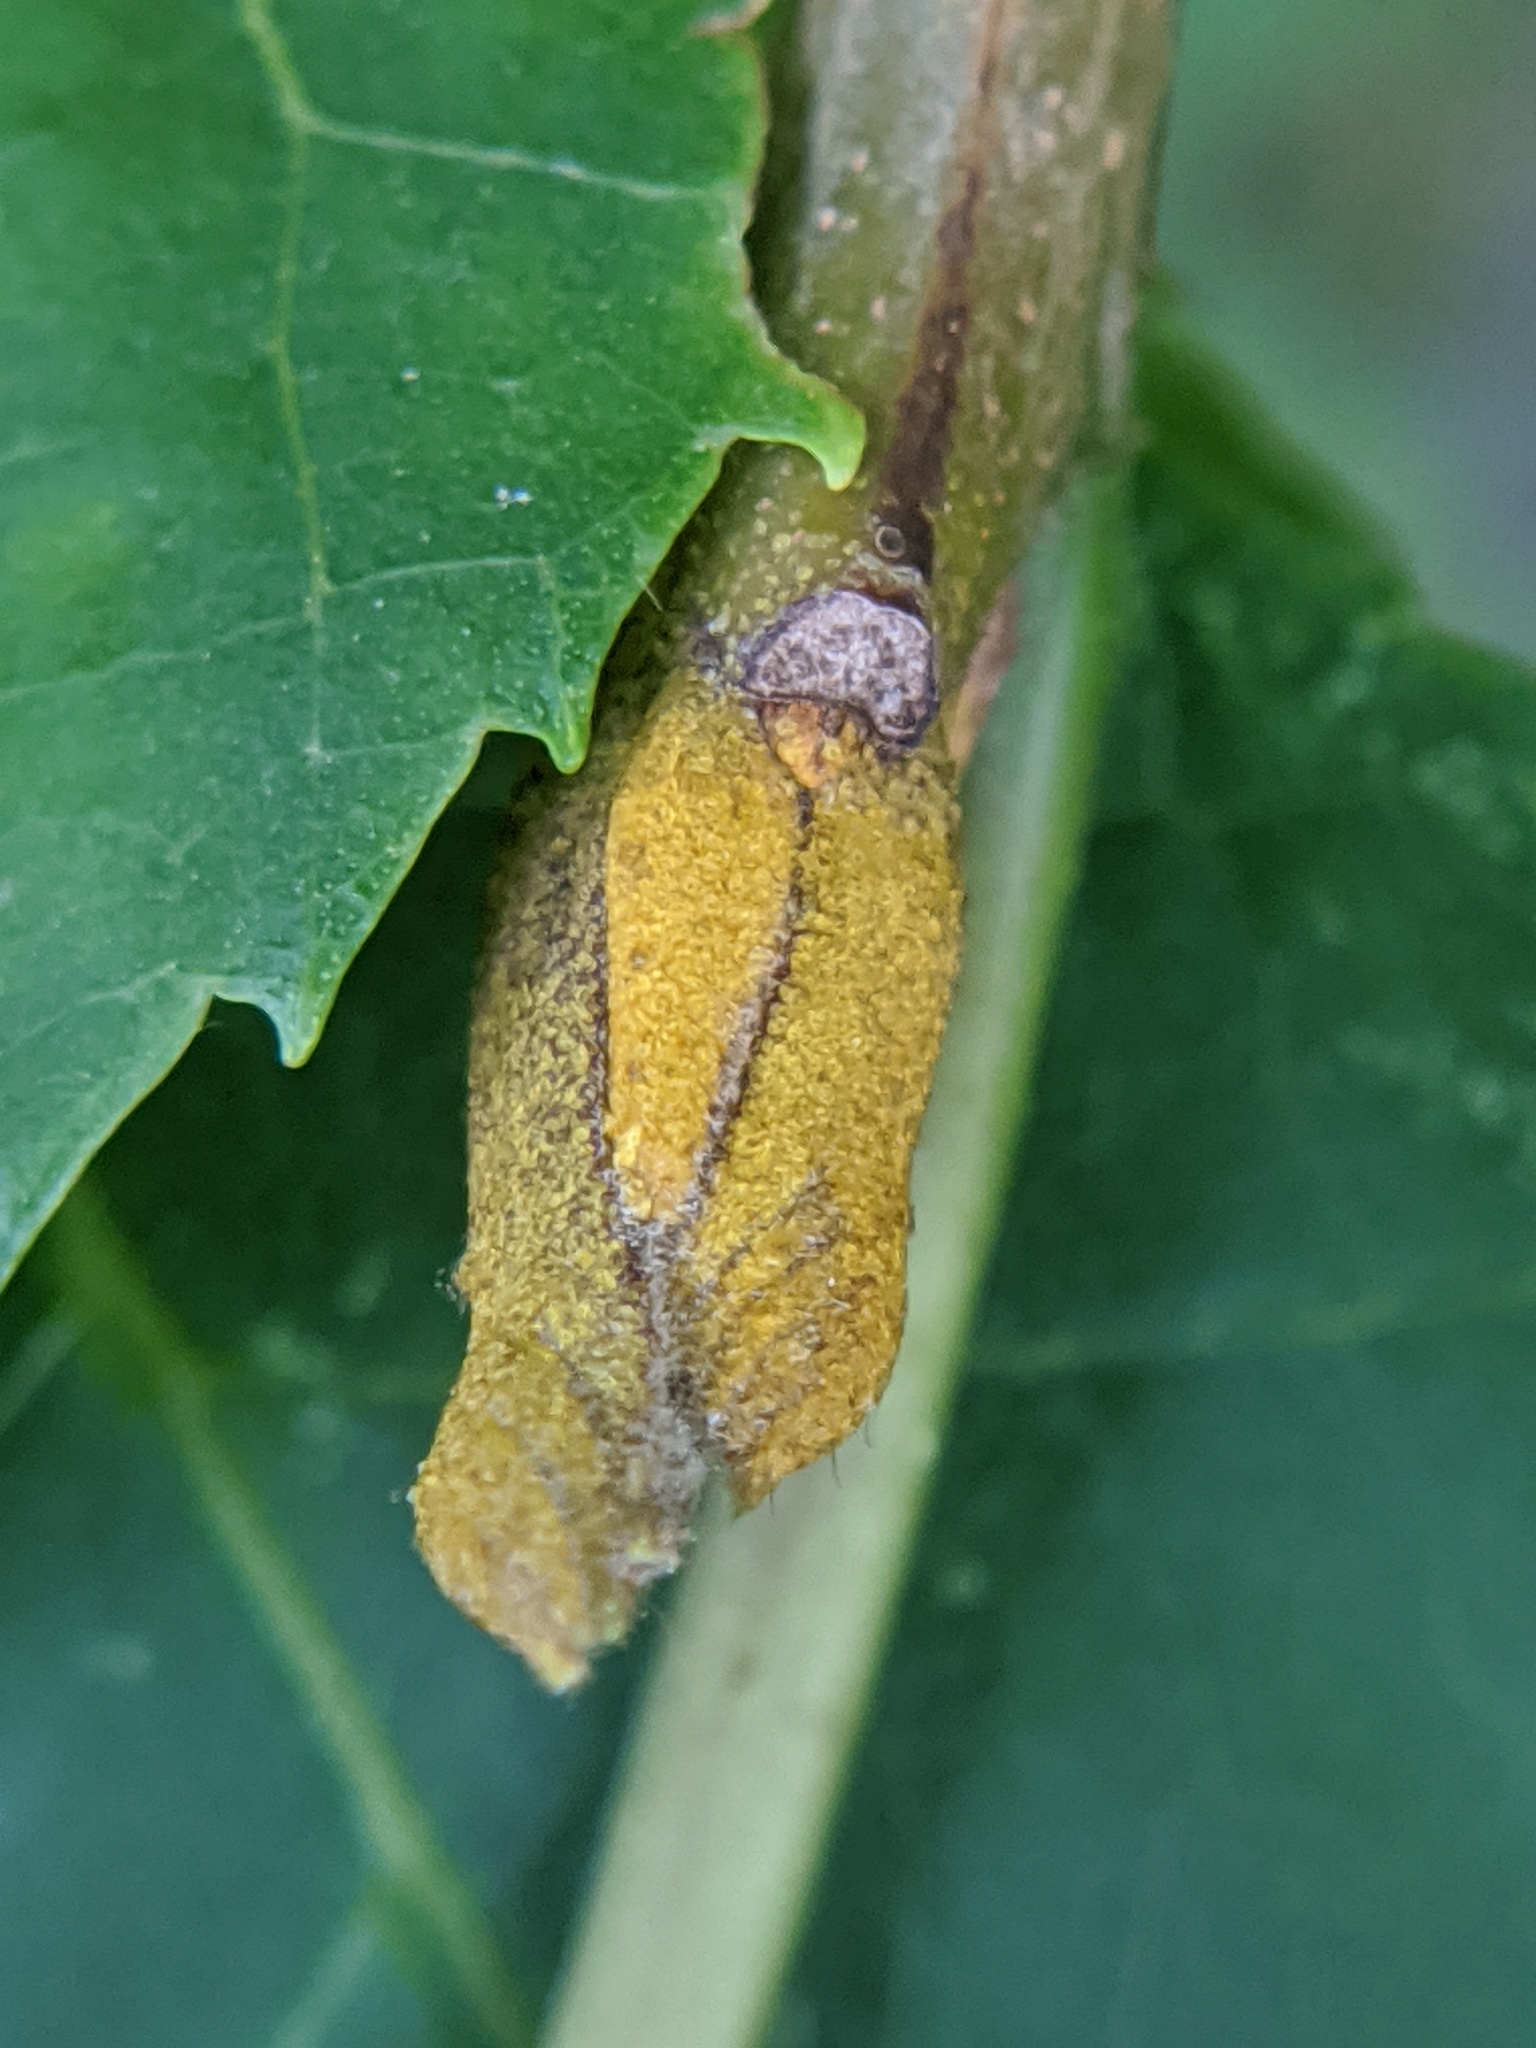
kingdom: Plantae
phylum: Tracheophyta
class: Magnoliopsida
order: Fagales
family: Juglandaceae
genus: Carya
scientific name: Carya cordiformis
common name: Bitternut hickory
